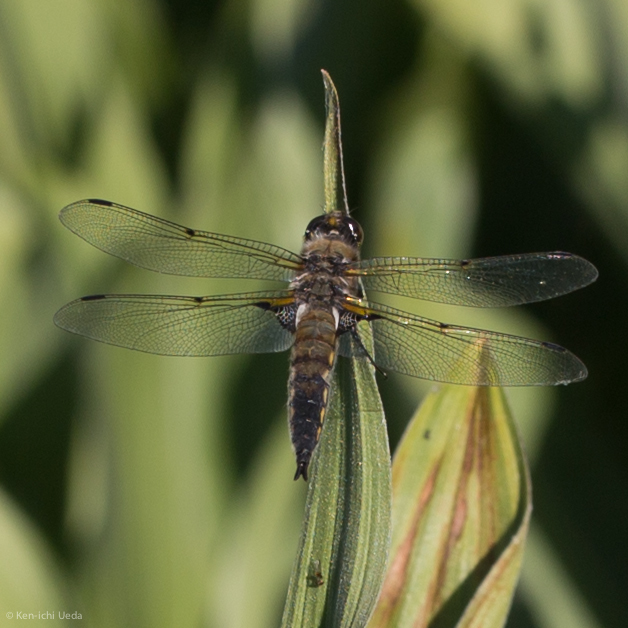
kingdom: Animalia
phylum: Arthropoda
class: Insecta
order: Odonata
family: Libellulidae
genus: Libellula
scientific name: Libellula quadrimaculata
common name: Four-spotted chaser
